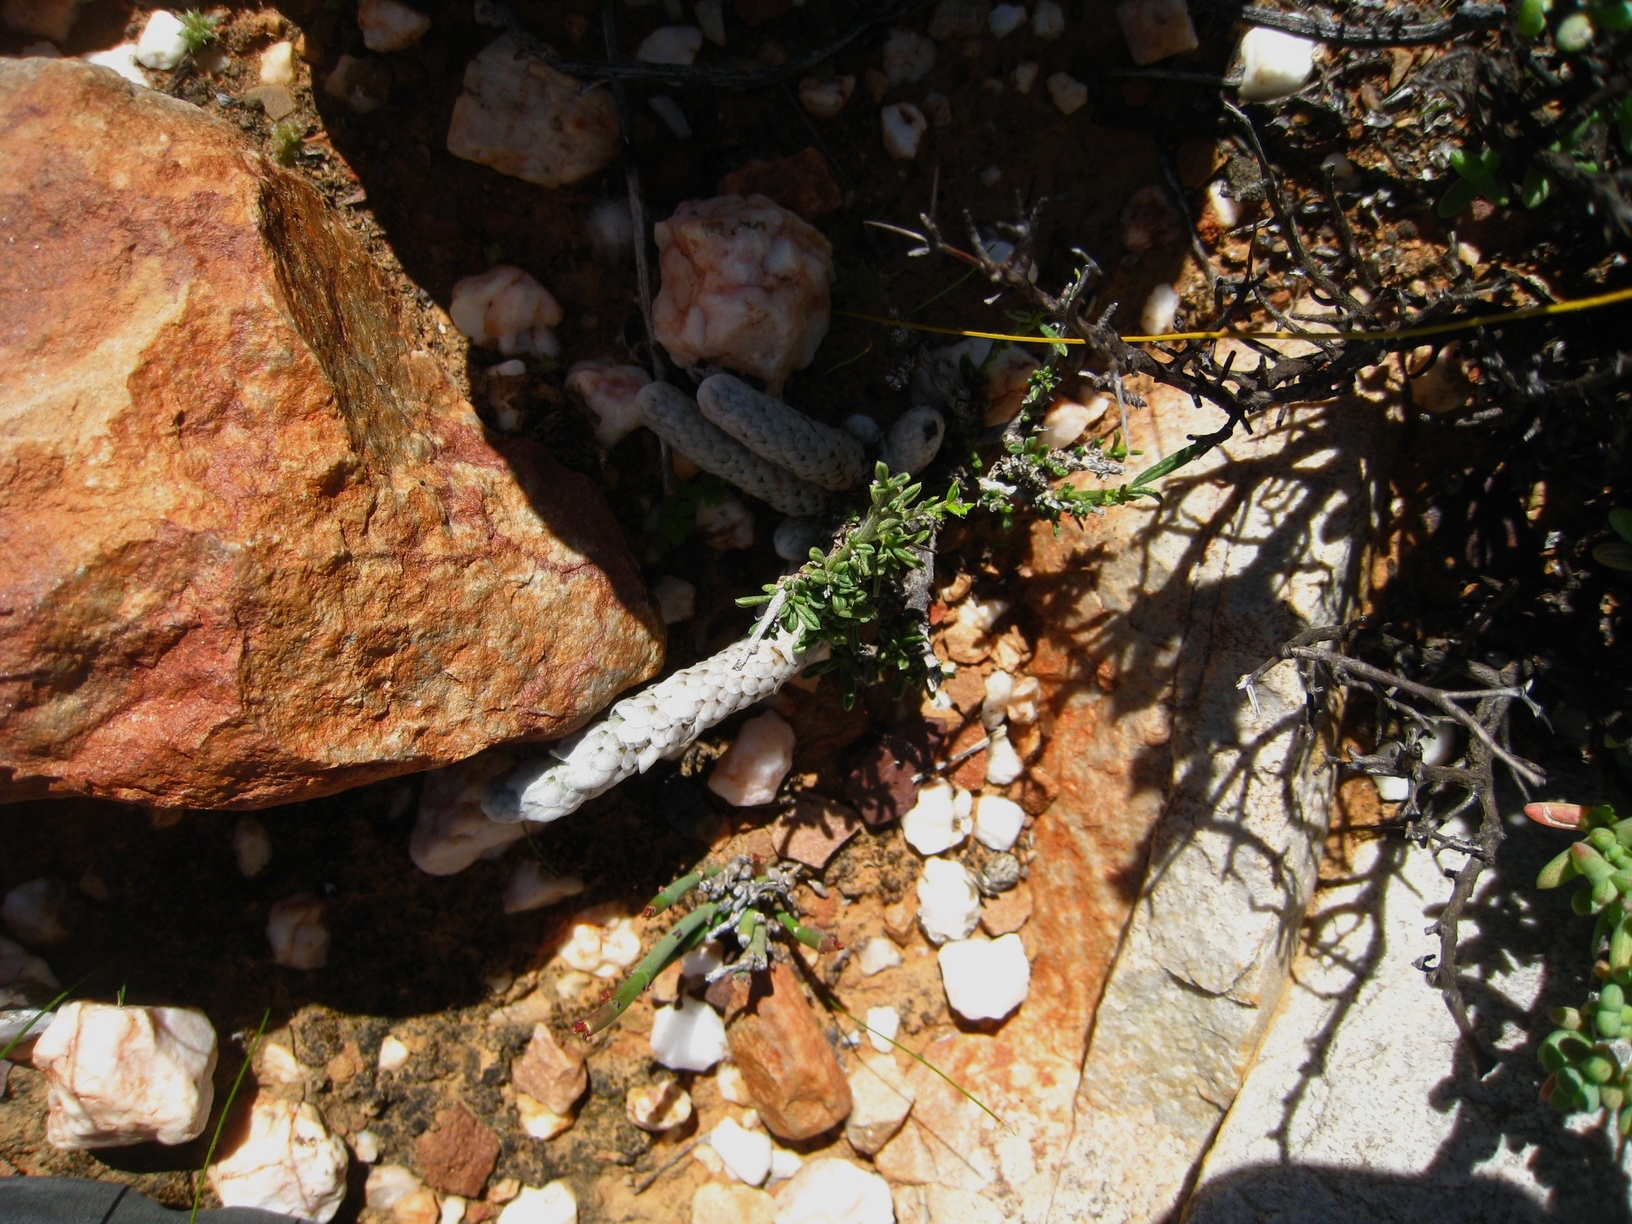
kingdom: Plantae
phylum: Tracheophyta
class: Magnoliopsida
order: Caryophyllales
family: Anacampserotaceae
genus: Avonia
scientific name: Avonia papyracea
